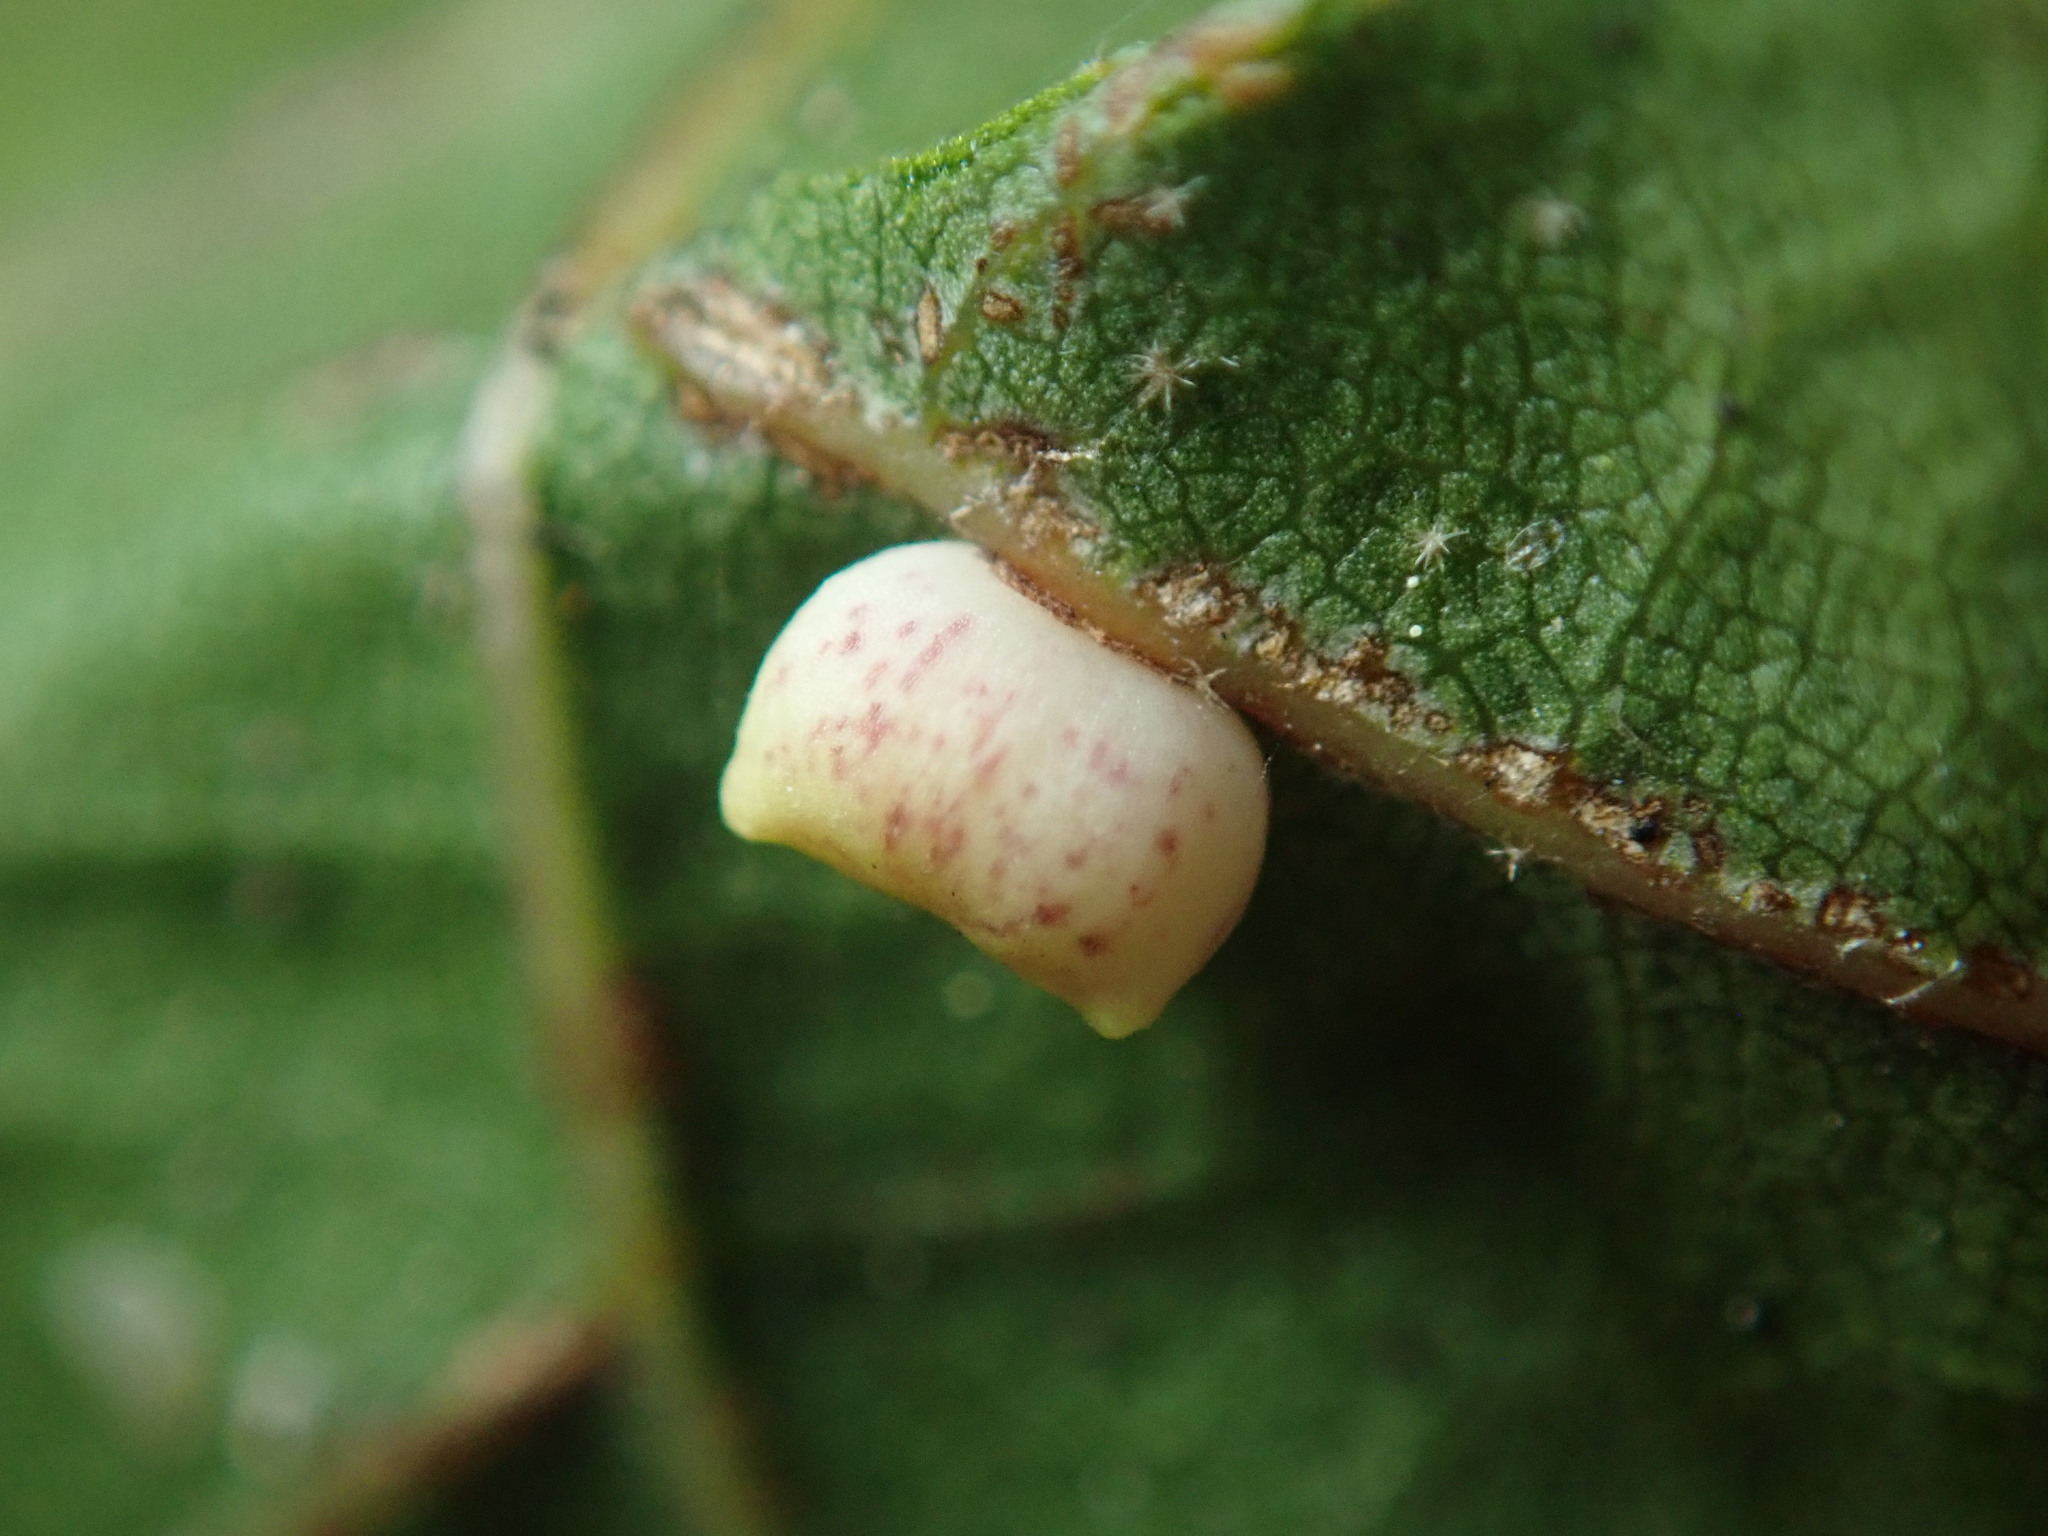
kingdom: Animalia
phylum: Arthropoda
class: Insecta
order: Hymenoptera
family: Cynipidae
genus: Dryocosmus
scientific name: Dryocosmus
